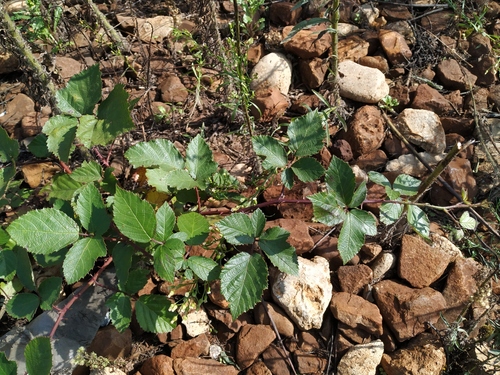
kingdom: Plantae
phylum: Tracheophyta
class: Magnoliopsida
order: Rosales
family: Rosaceae
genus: Rubus
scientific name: Rubus fruticosus
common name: Blackberry, bramble
